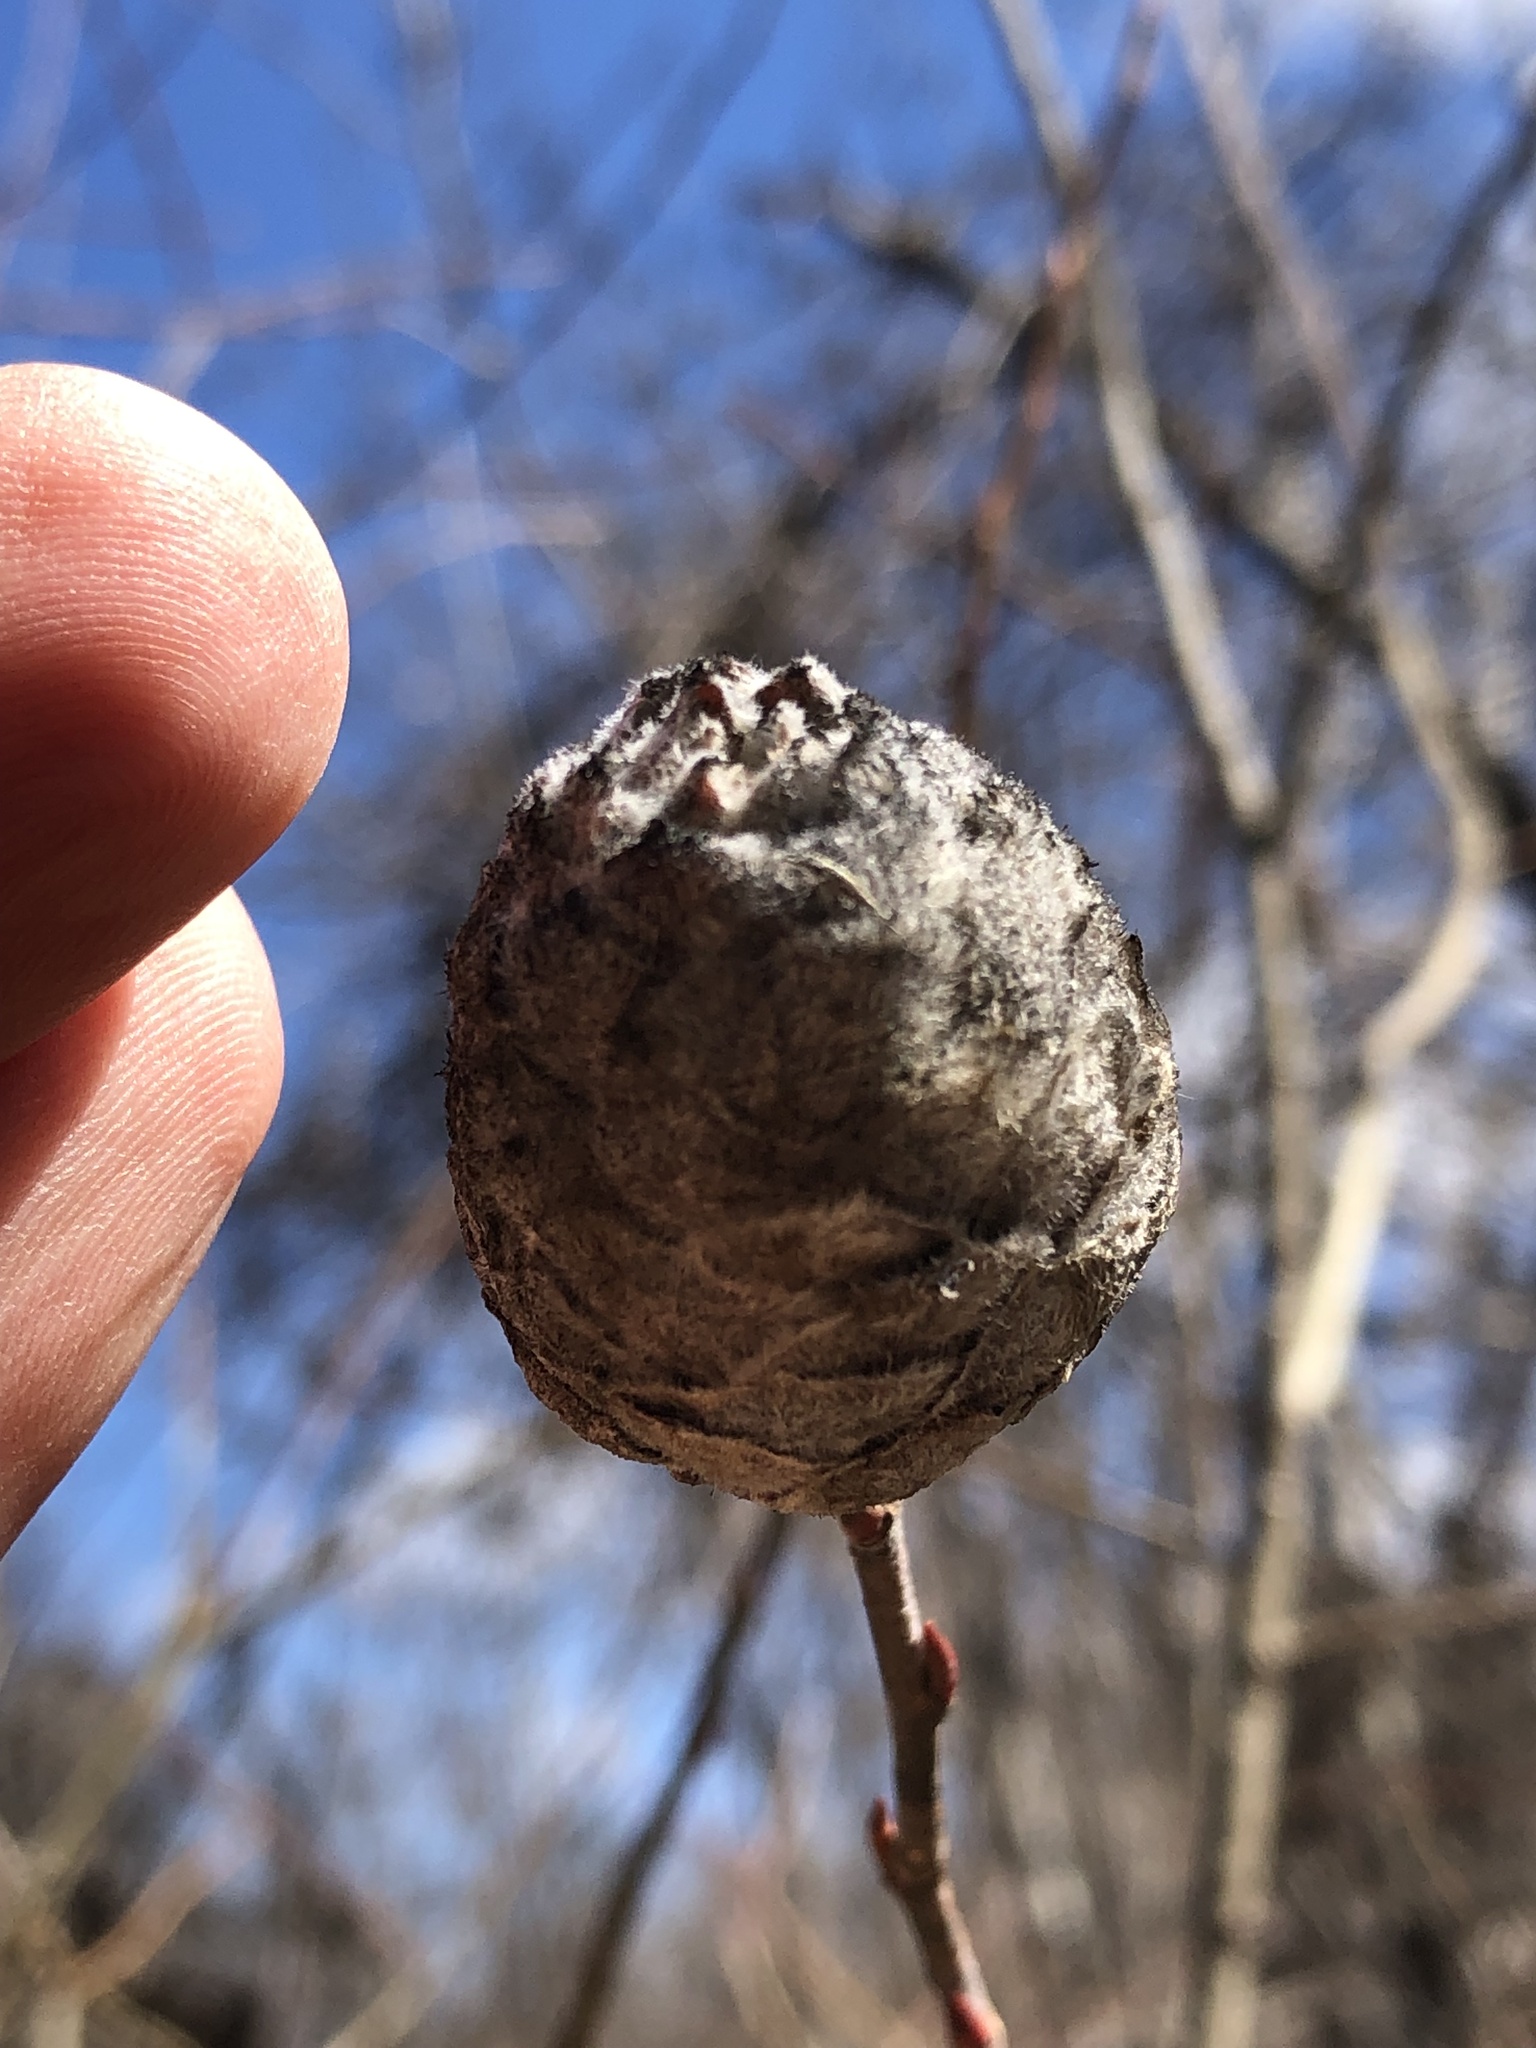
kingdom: Animalia
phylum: Arthropoda
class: Insecta
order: Diptera
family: Cecidomyiidae
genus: Rabdophaga
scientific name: Rabdophaga strobiloides
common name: Willow pinecone gall midge
